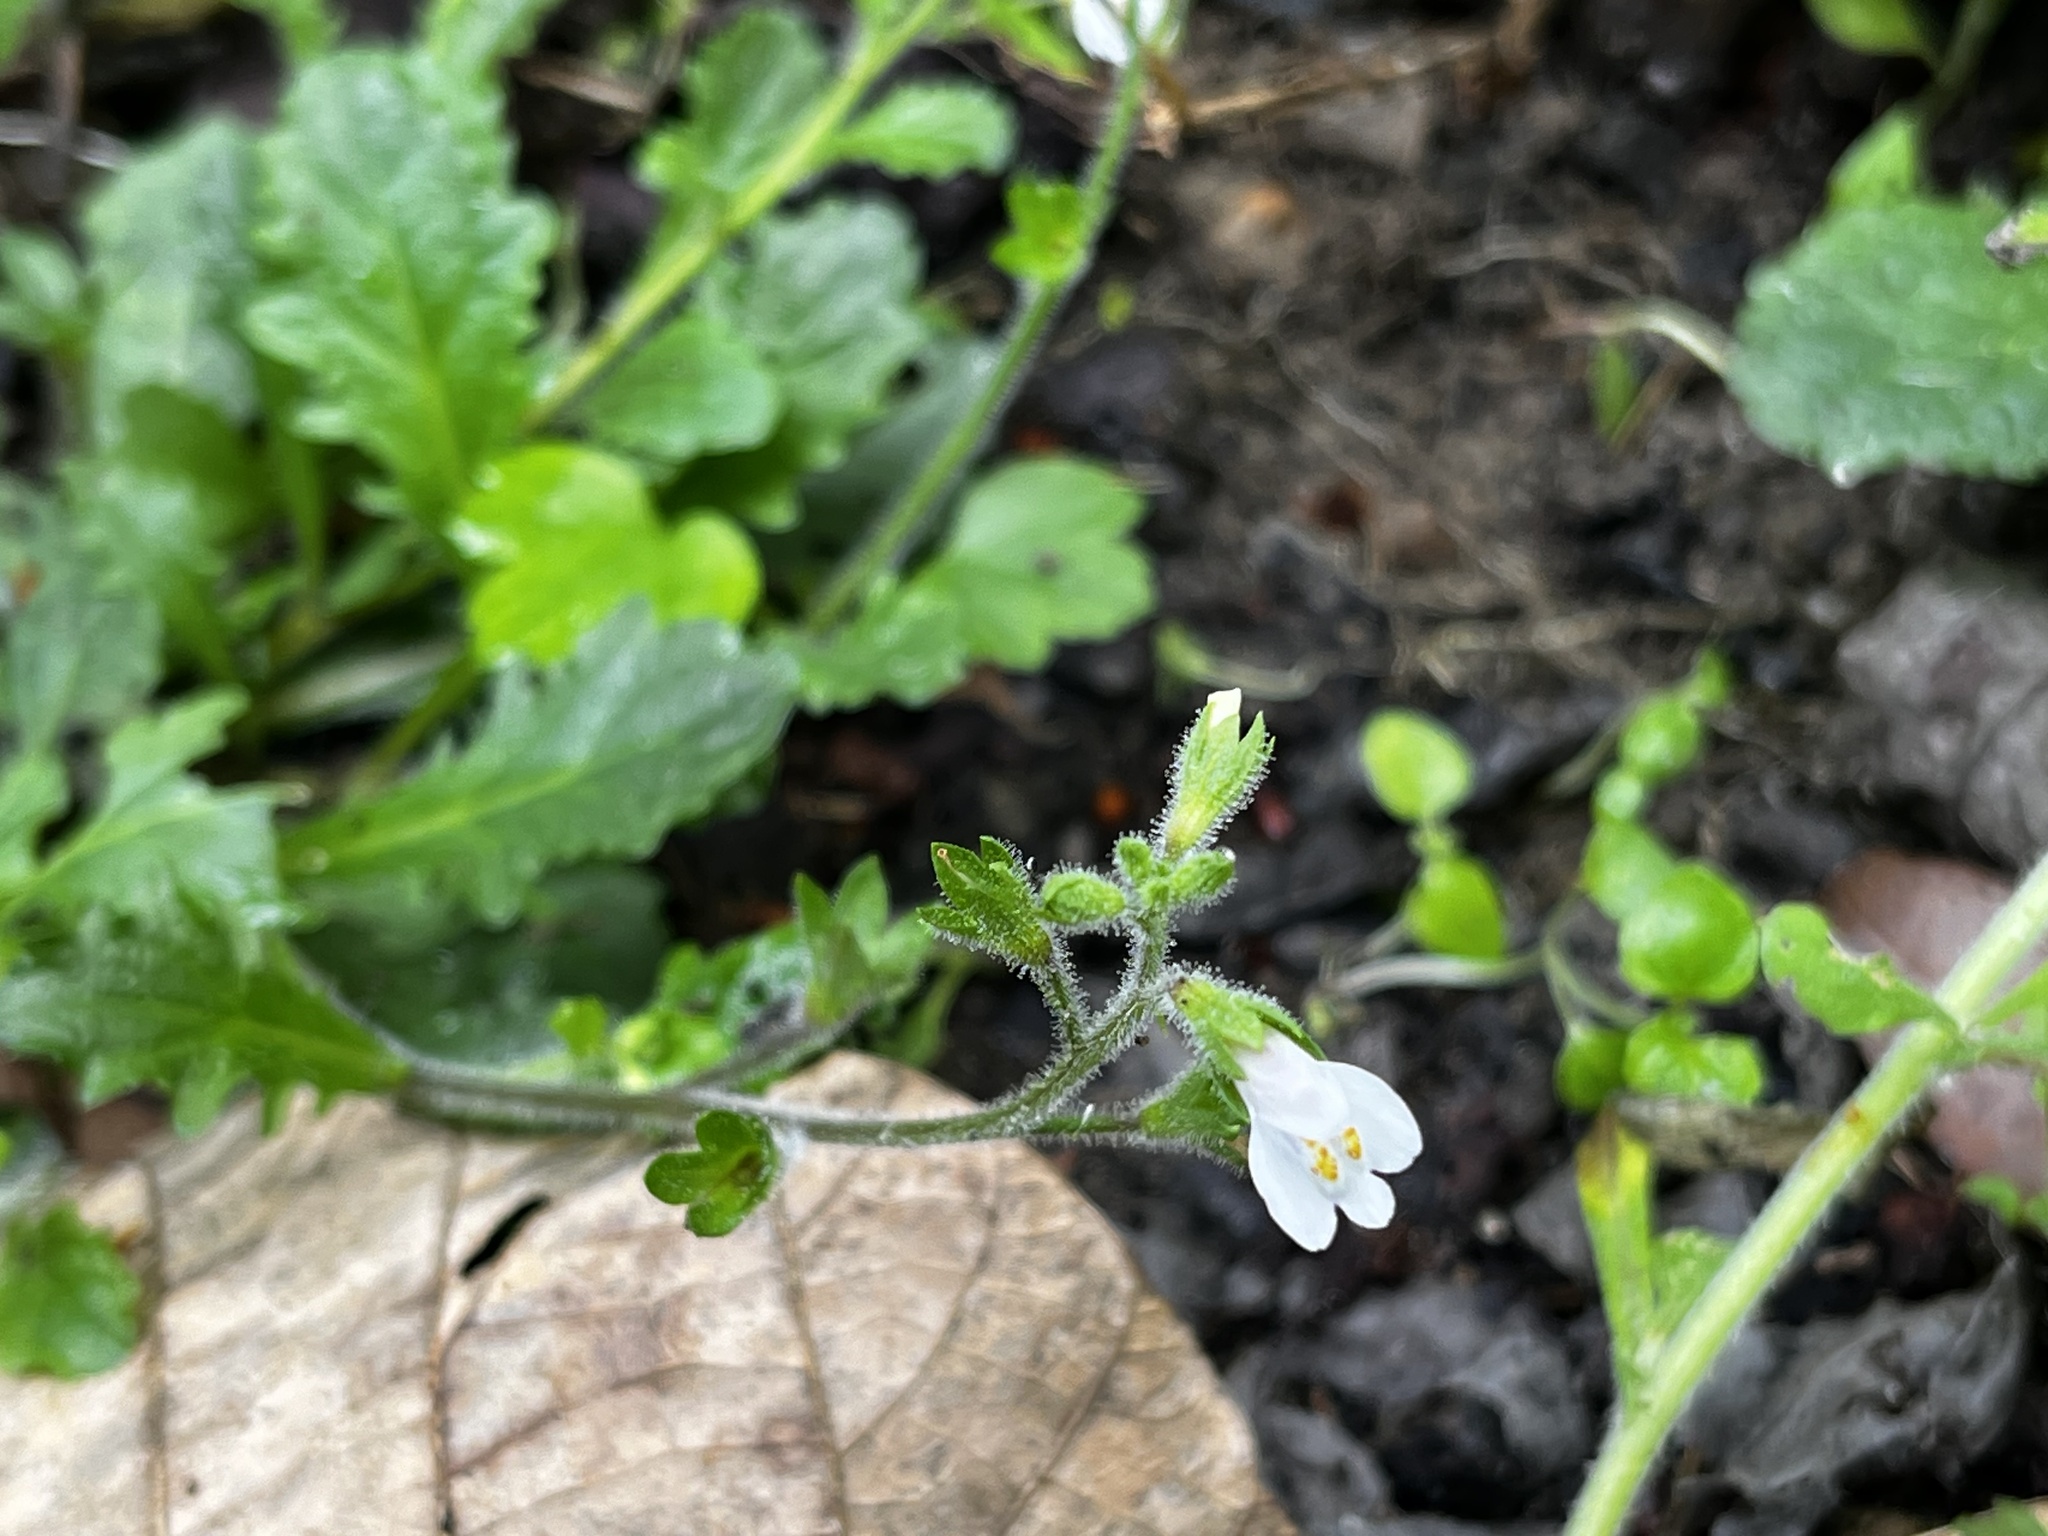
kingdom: Plantae
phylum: Tracheophyta
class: Magnoliopsida
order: Lamiales
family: Mazaceae
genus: Mazus
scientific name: Mazus goodeniifolius
